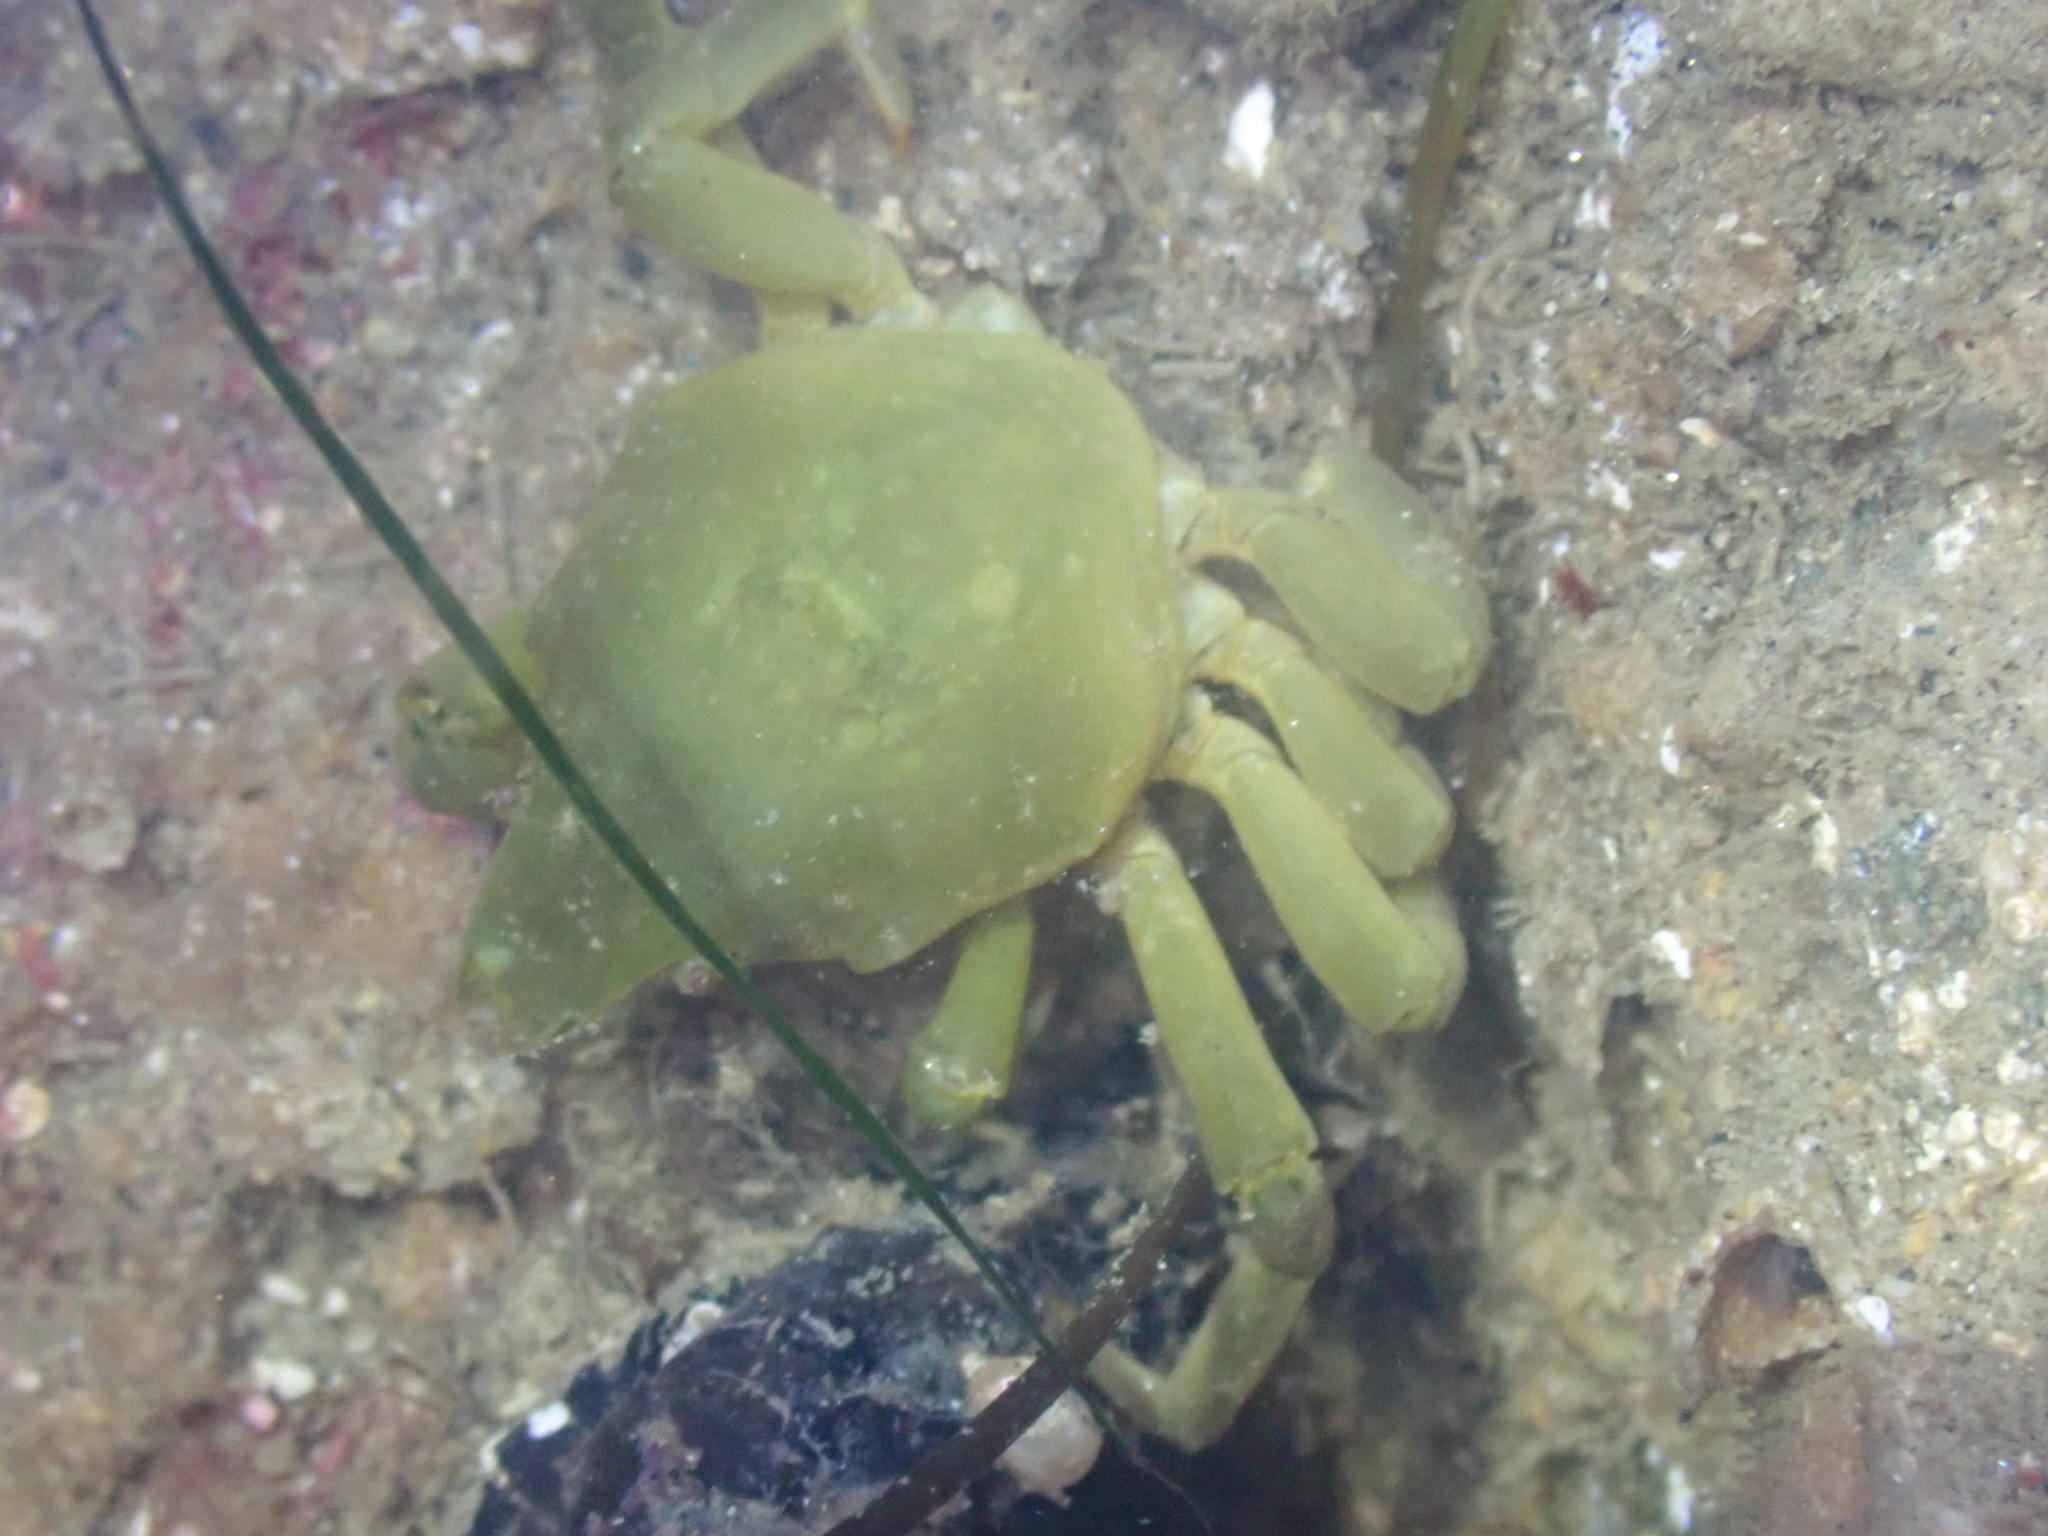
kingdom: Animalia
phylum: Arthropoda
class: Malacostraca
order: Decapoda
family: Epialtidae
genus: Taliepus
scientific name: Taliepus nuttallii
